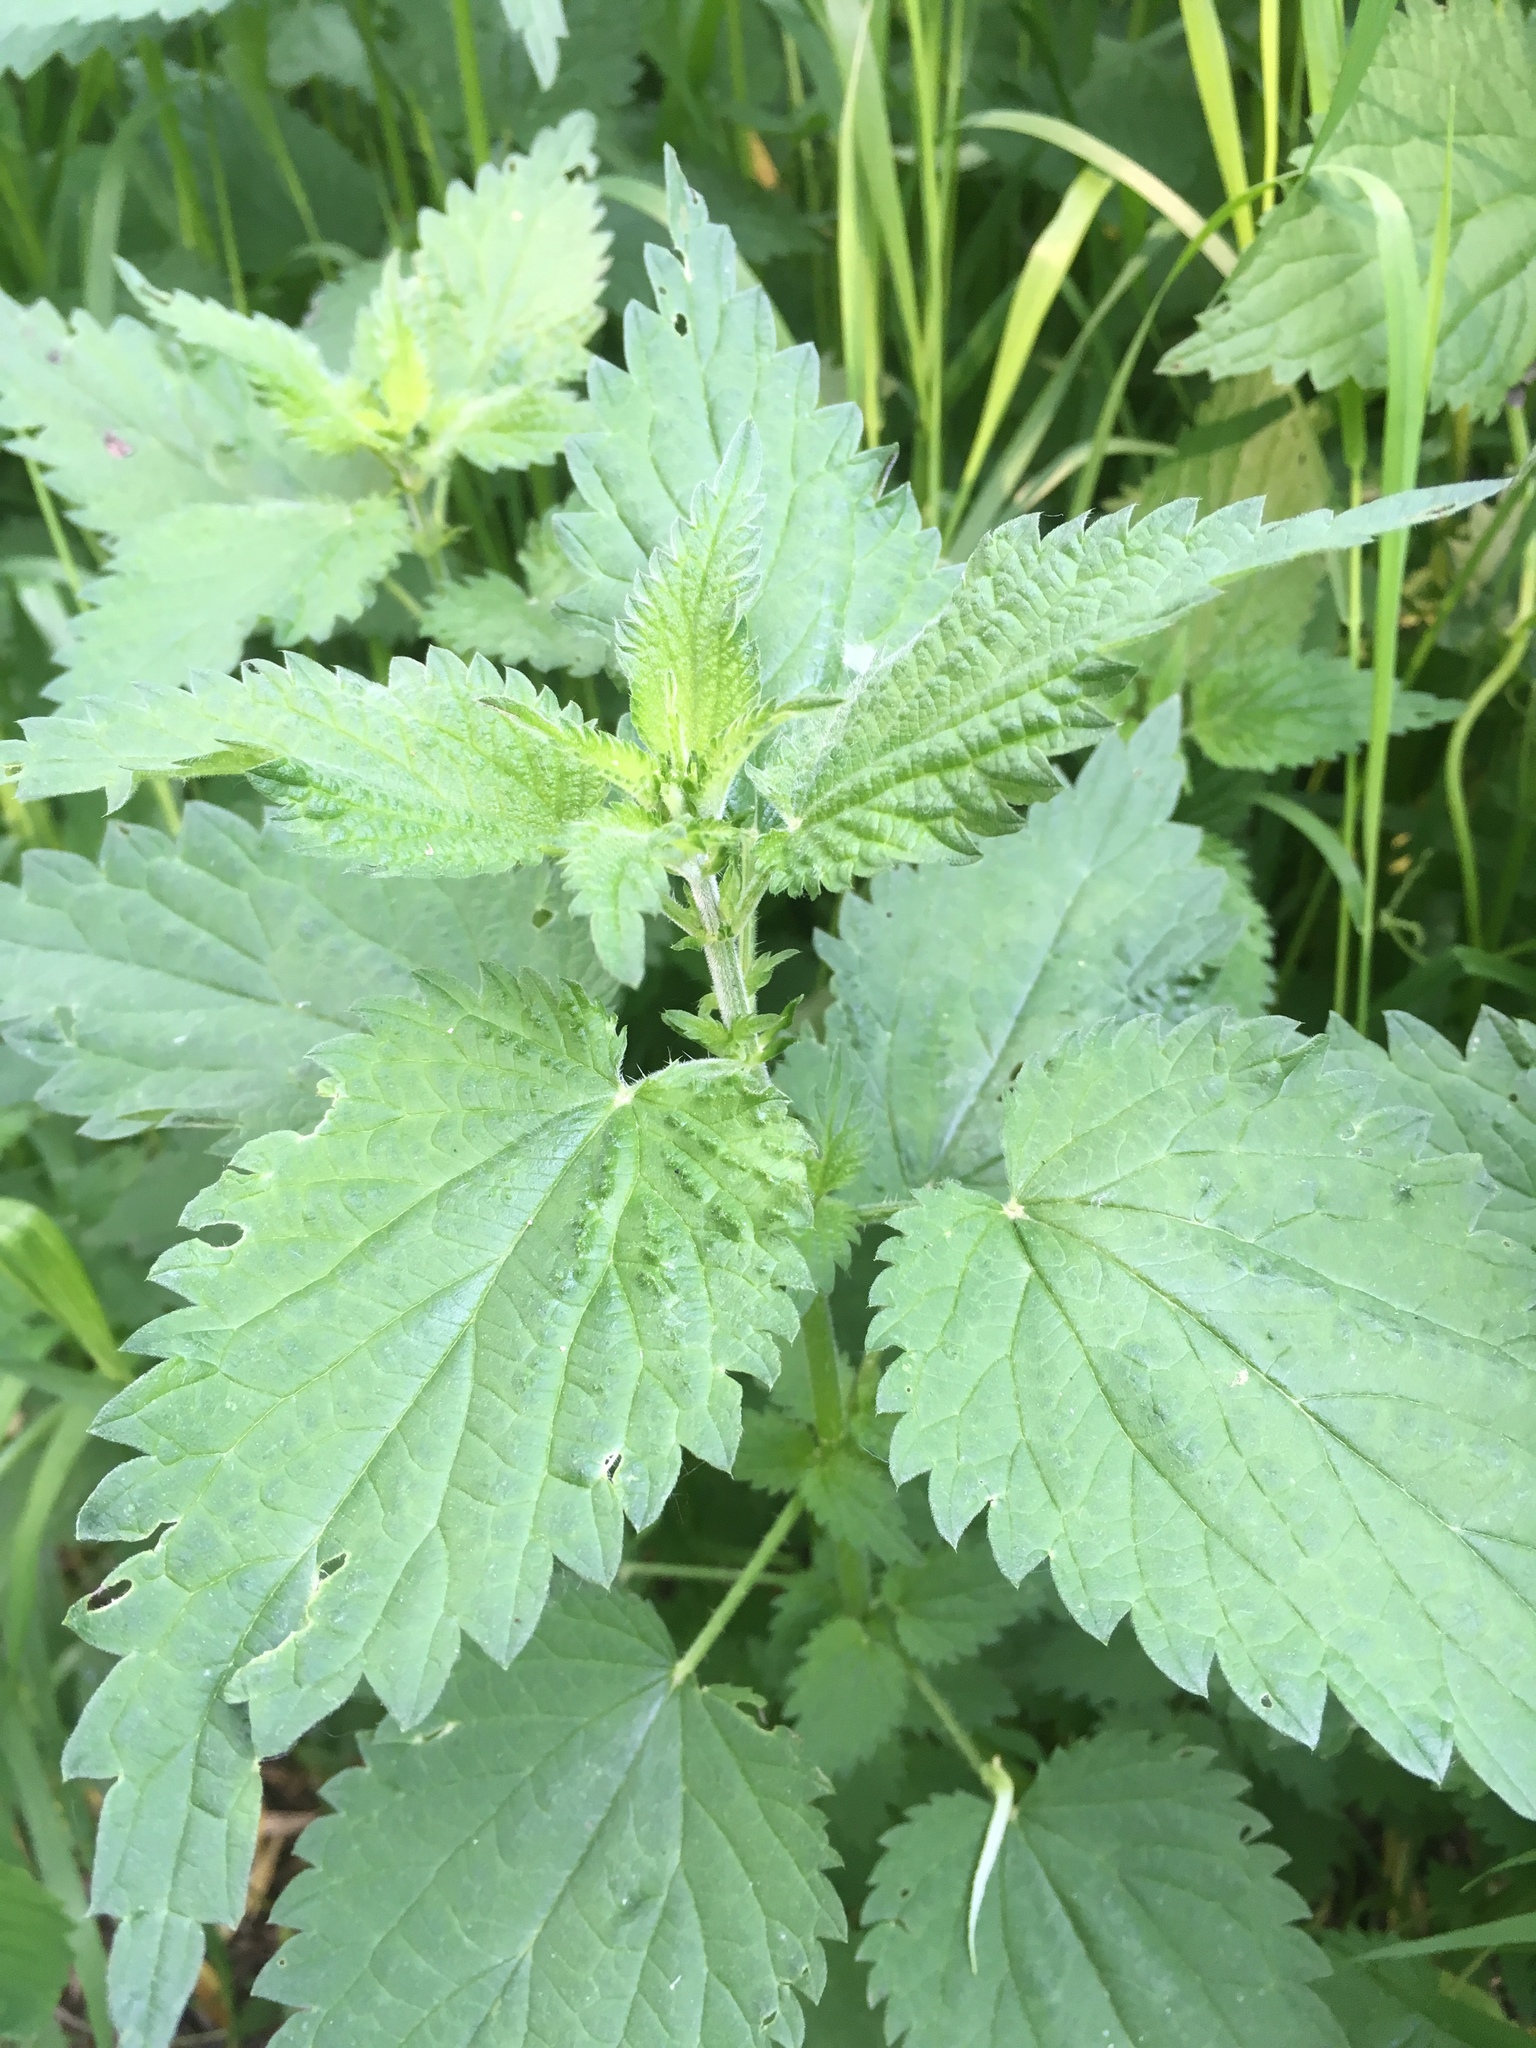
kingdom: Plantae
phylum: Tracheophyta
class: Magnoliopsida
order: Rosales
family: Urticaceae
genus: Urtica
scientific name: Urtica dioica
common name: Common nettle
